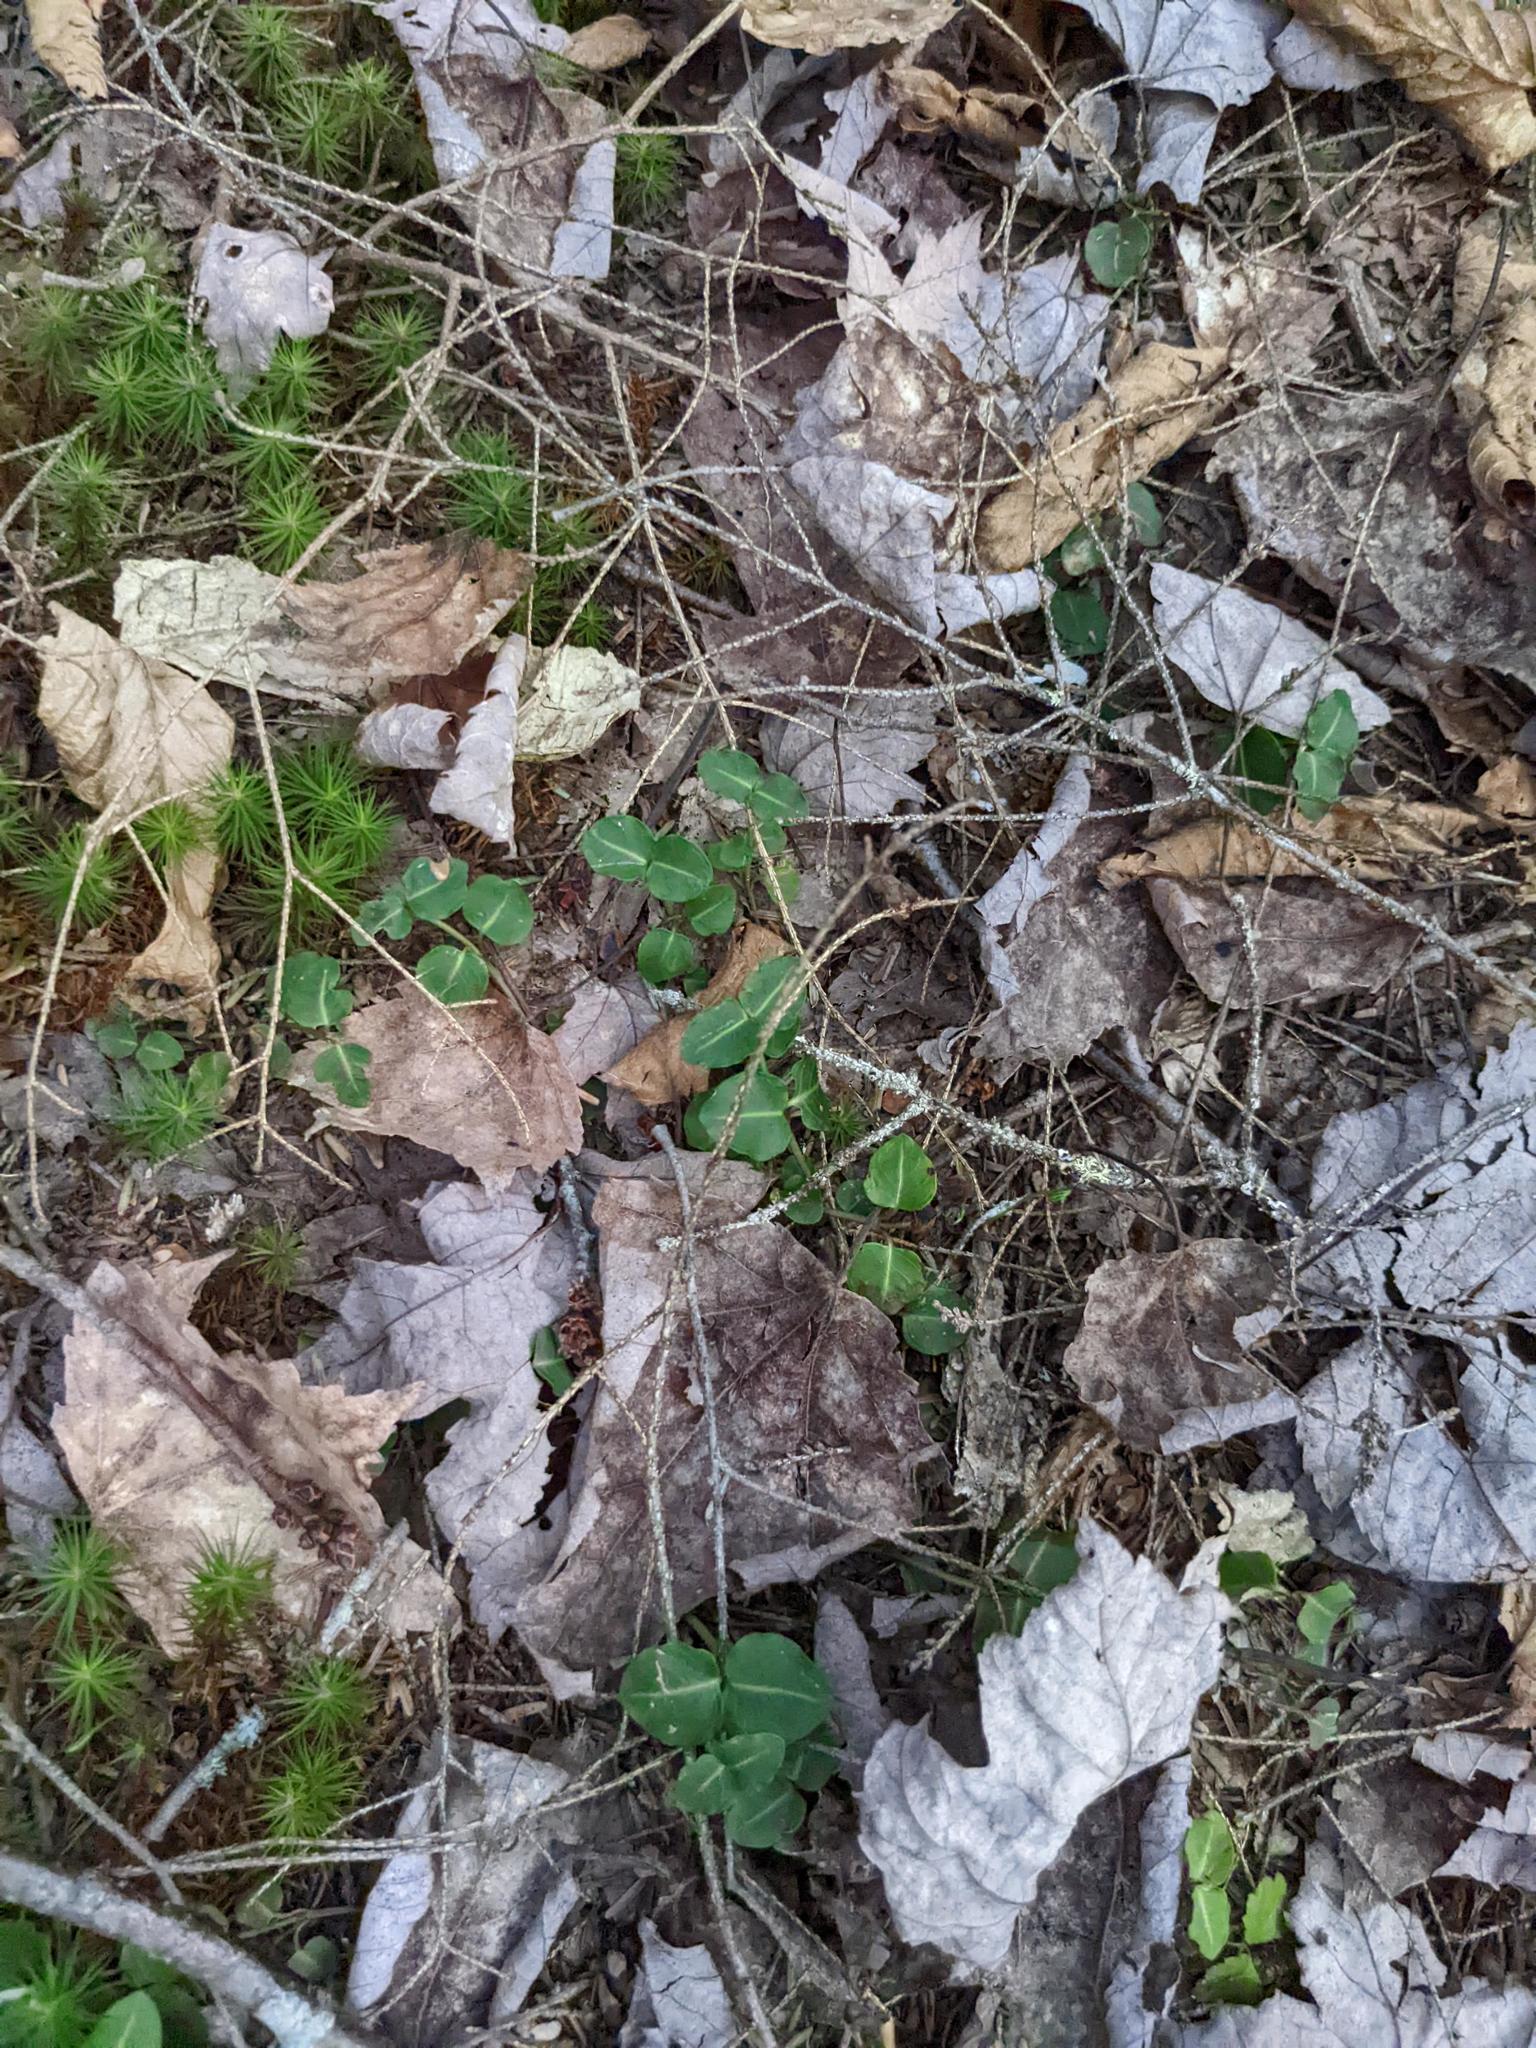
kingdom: Plantae
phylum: Tracheophyta
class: Magnoliopsida
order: Gentianales
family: Rubiaceae
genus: Mitchella
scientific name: Mitchella repens
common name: Partridge-berry
